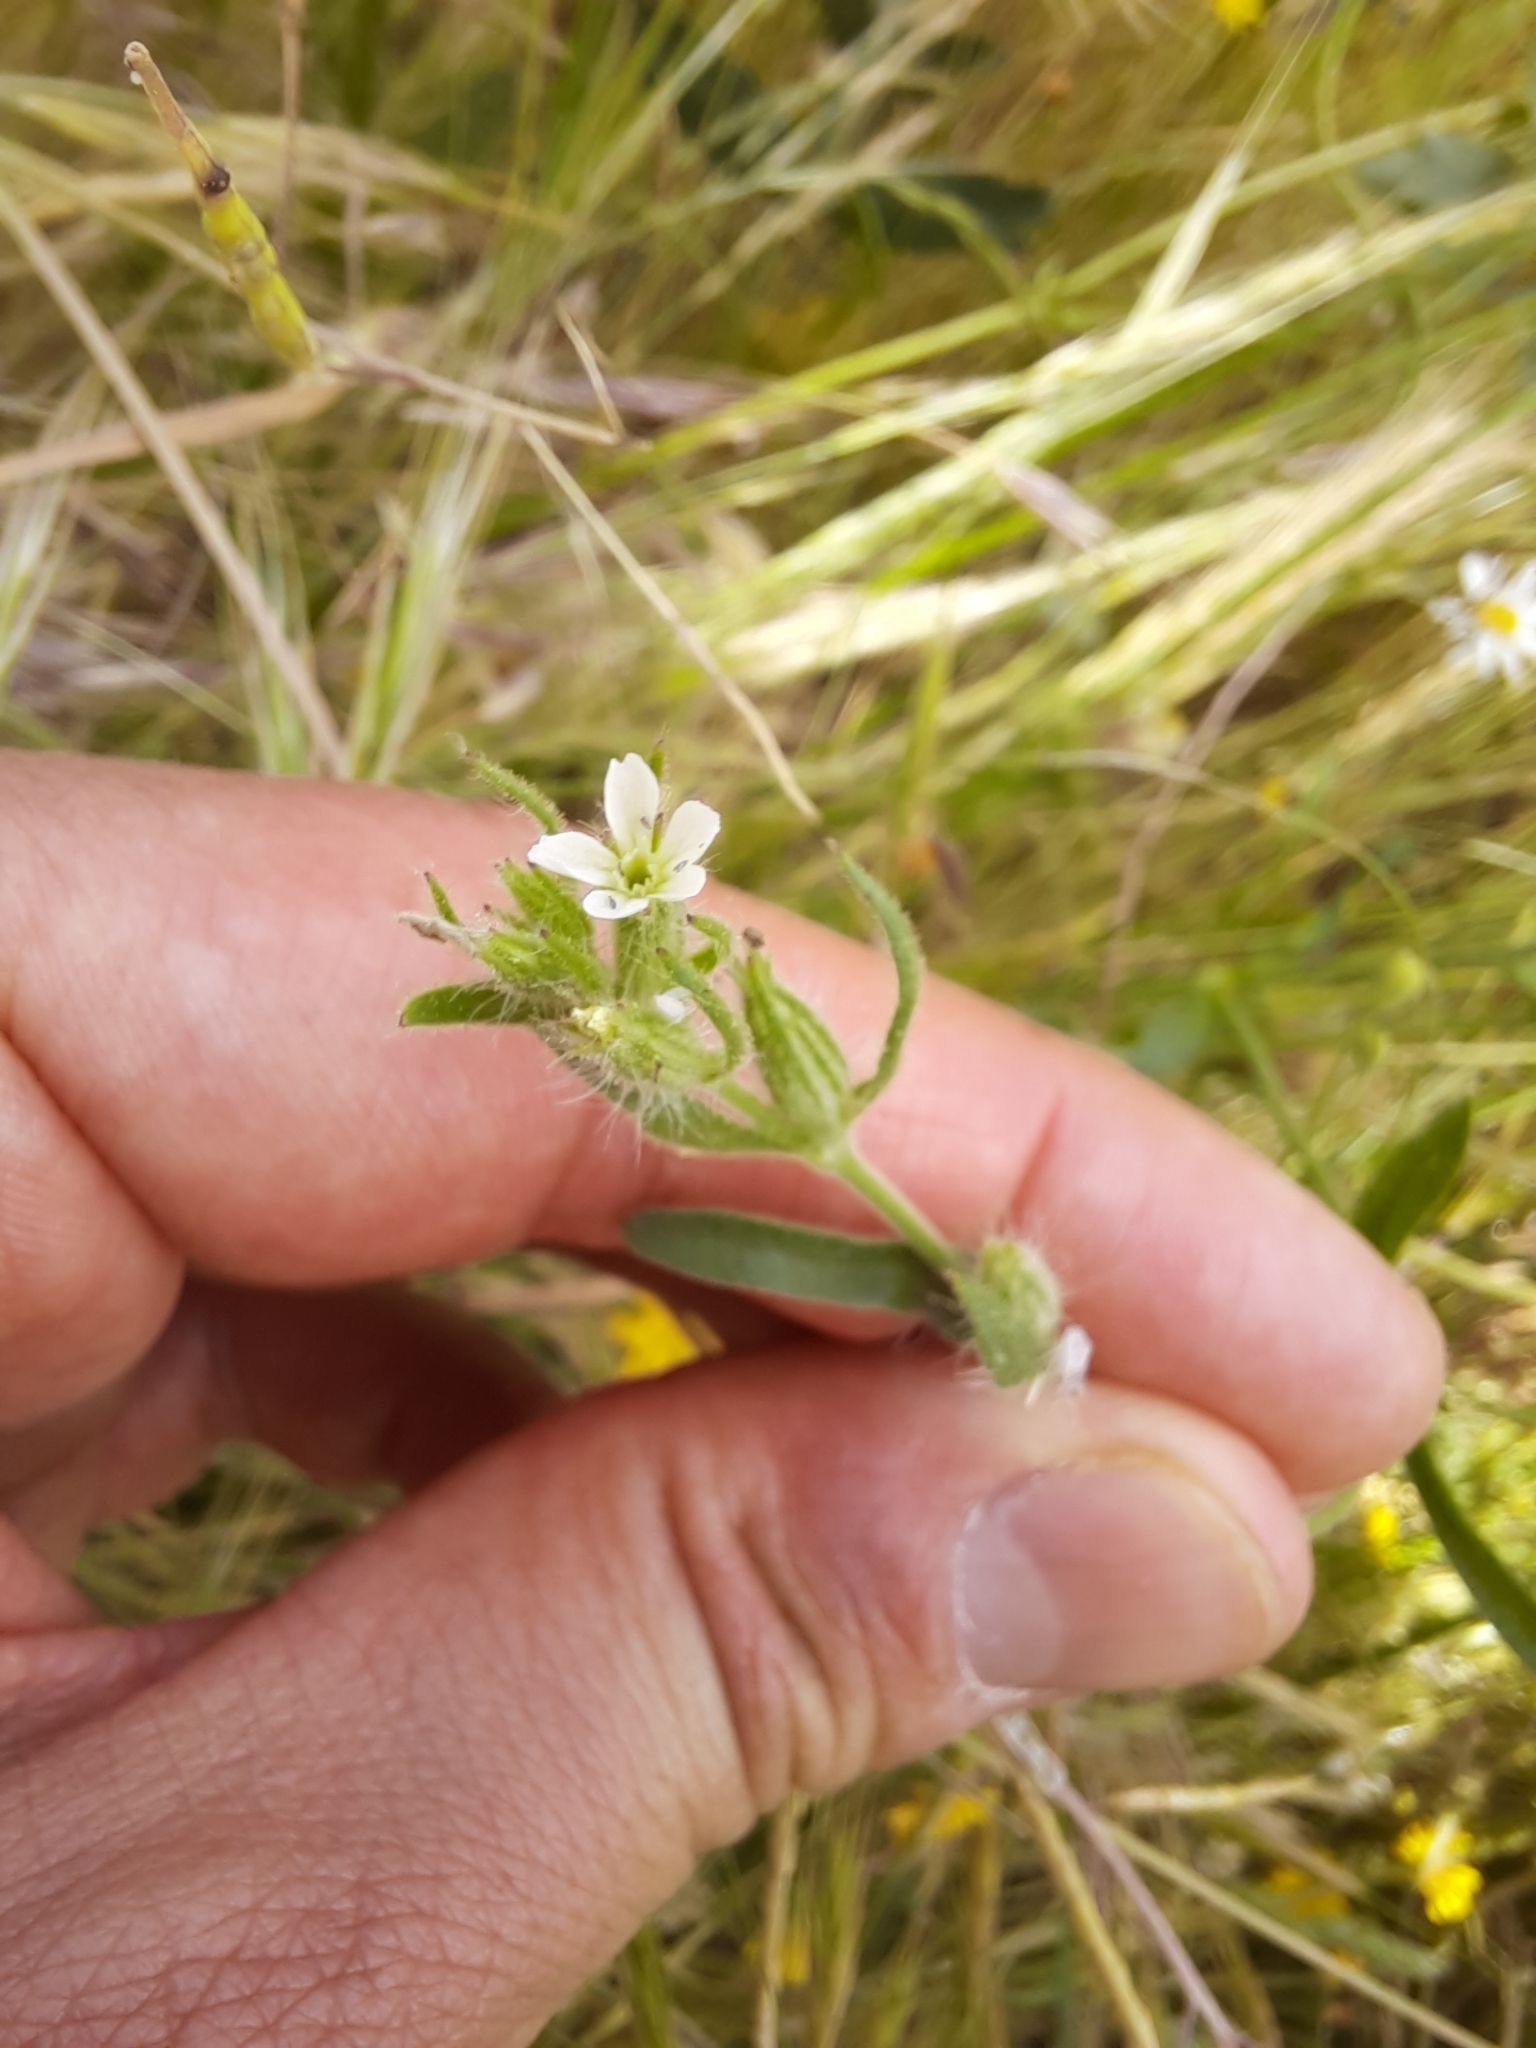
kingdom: Plantae
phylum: Tracheophyta
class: Magnoliopsida
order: Caryophyllales
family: Caryophyllaceae
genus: Silene
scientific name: Silene gallica
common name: Small-flowered catchfly
